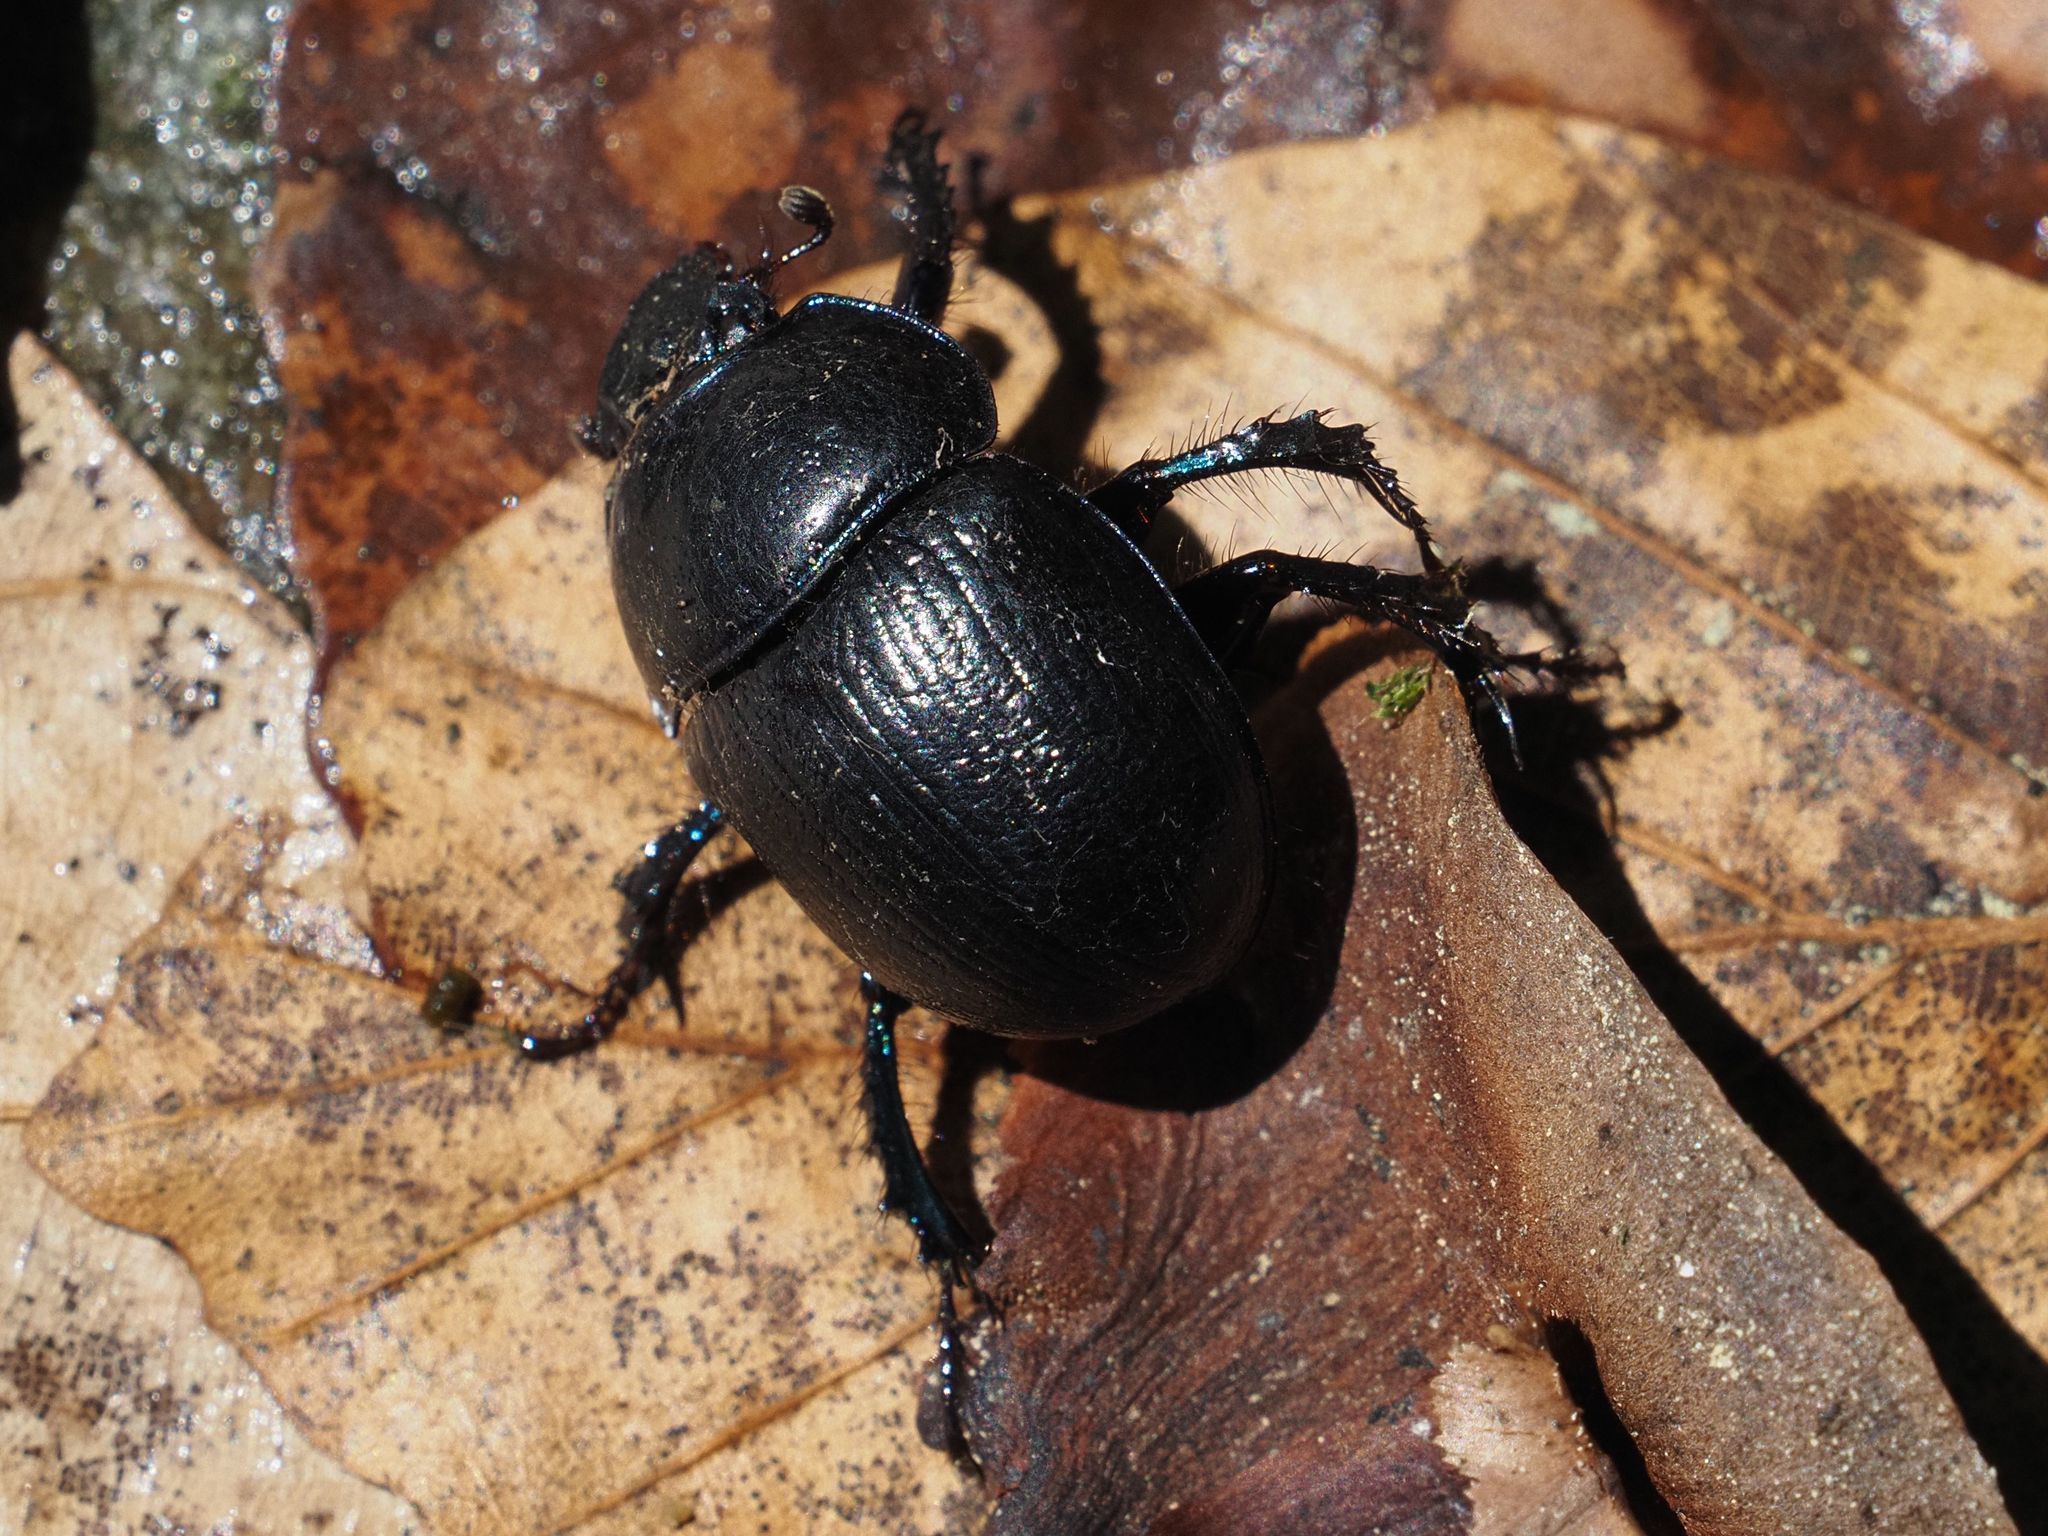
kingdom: Animalia
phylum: Arthropoda
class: Insecta
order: Coleoptera
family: Geotrupidae
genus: Anoplotrupes
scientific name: Anoplotrupes stercorosus
